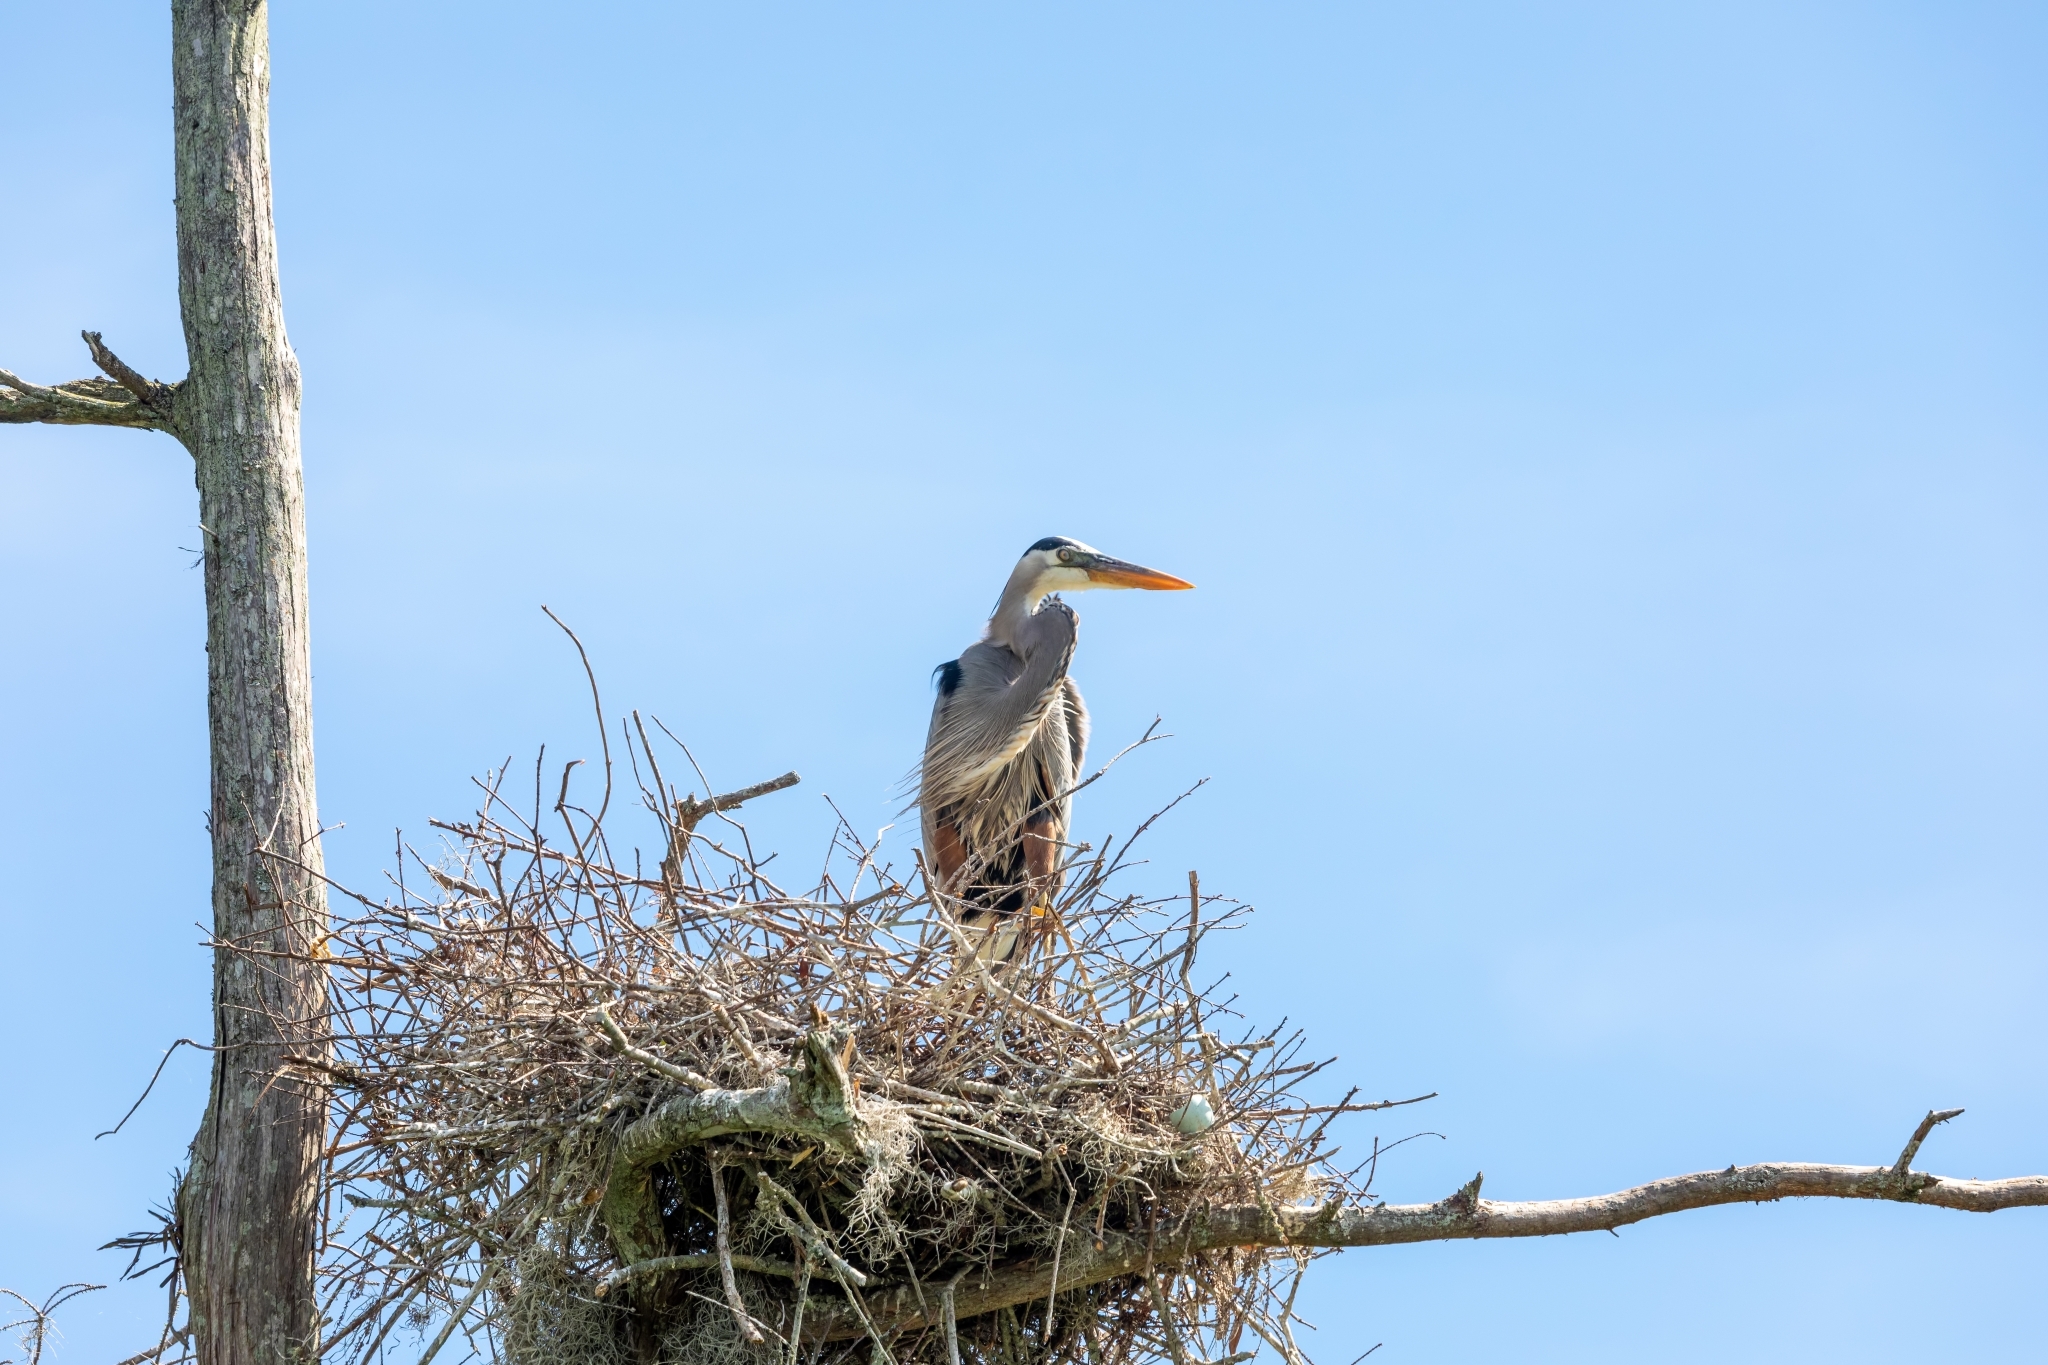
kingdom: Animalia
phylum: Chordata
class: Aves
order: Pelecaniformes
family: Ardeidae
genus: Ardea
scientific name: Ardea herodias
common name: Great blue heron
